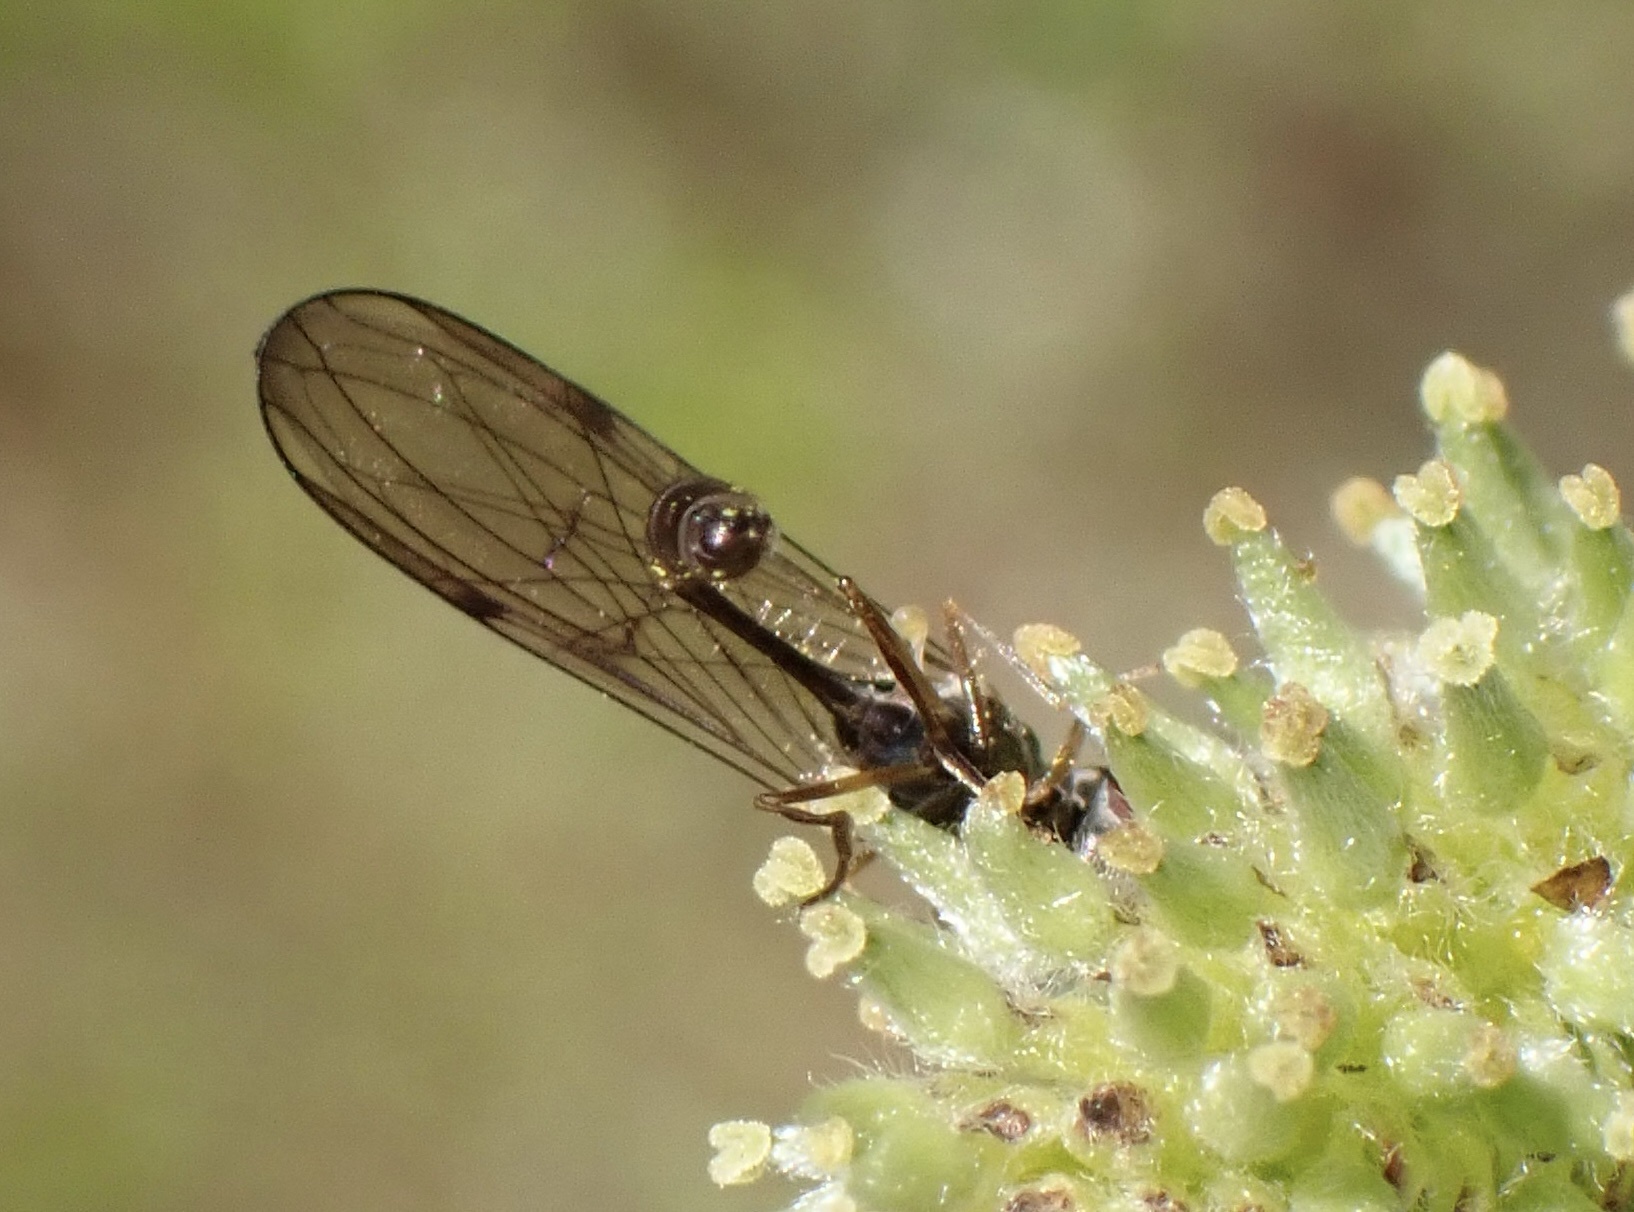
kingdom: Animalia
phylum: Arthropoda
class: Insecta
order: Diptera
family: Syrphidae
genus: Baccha
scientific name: Baccha elongata
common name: Common dainty
